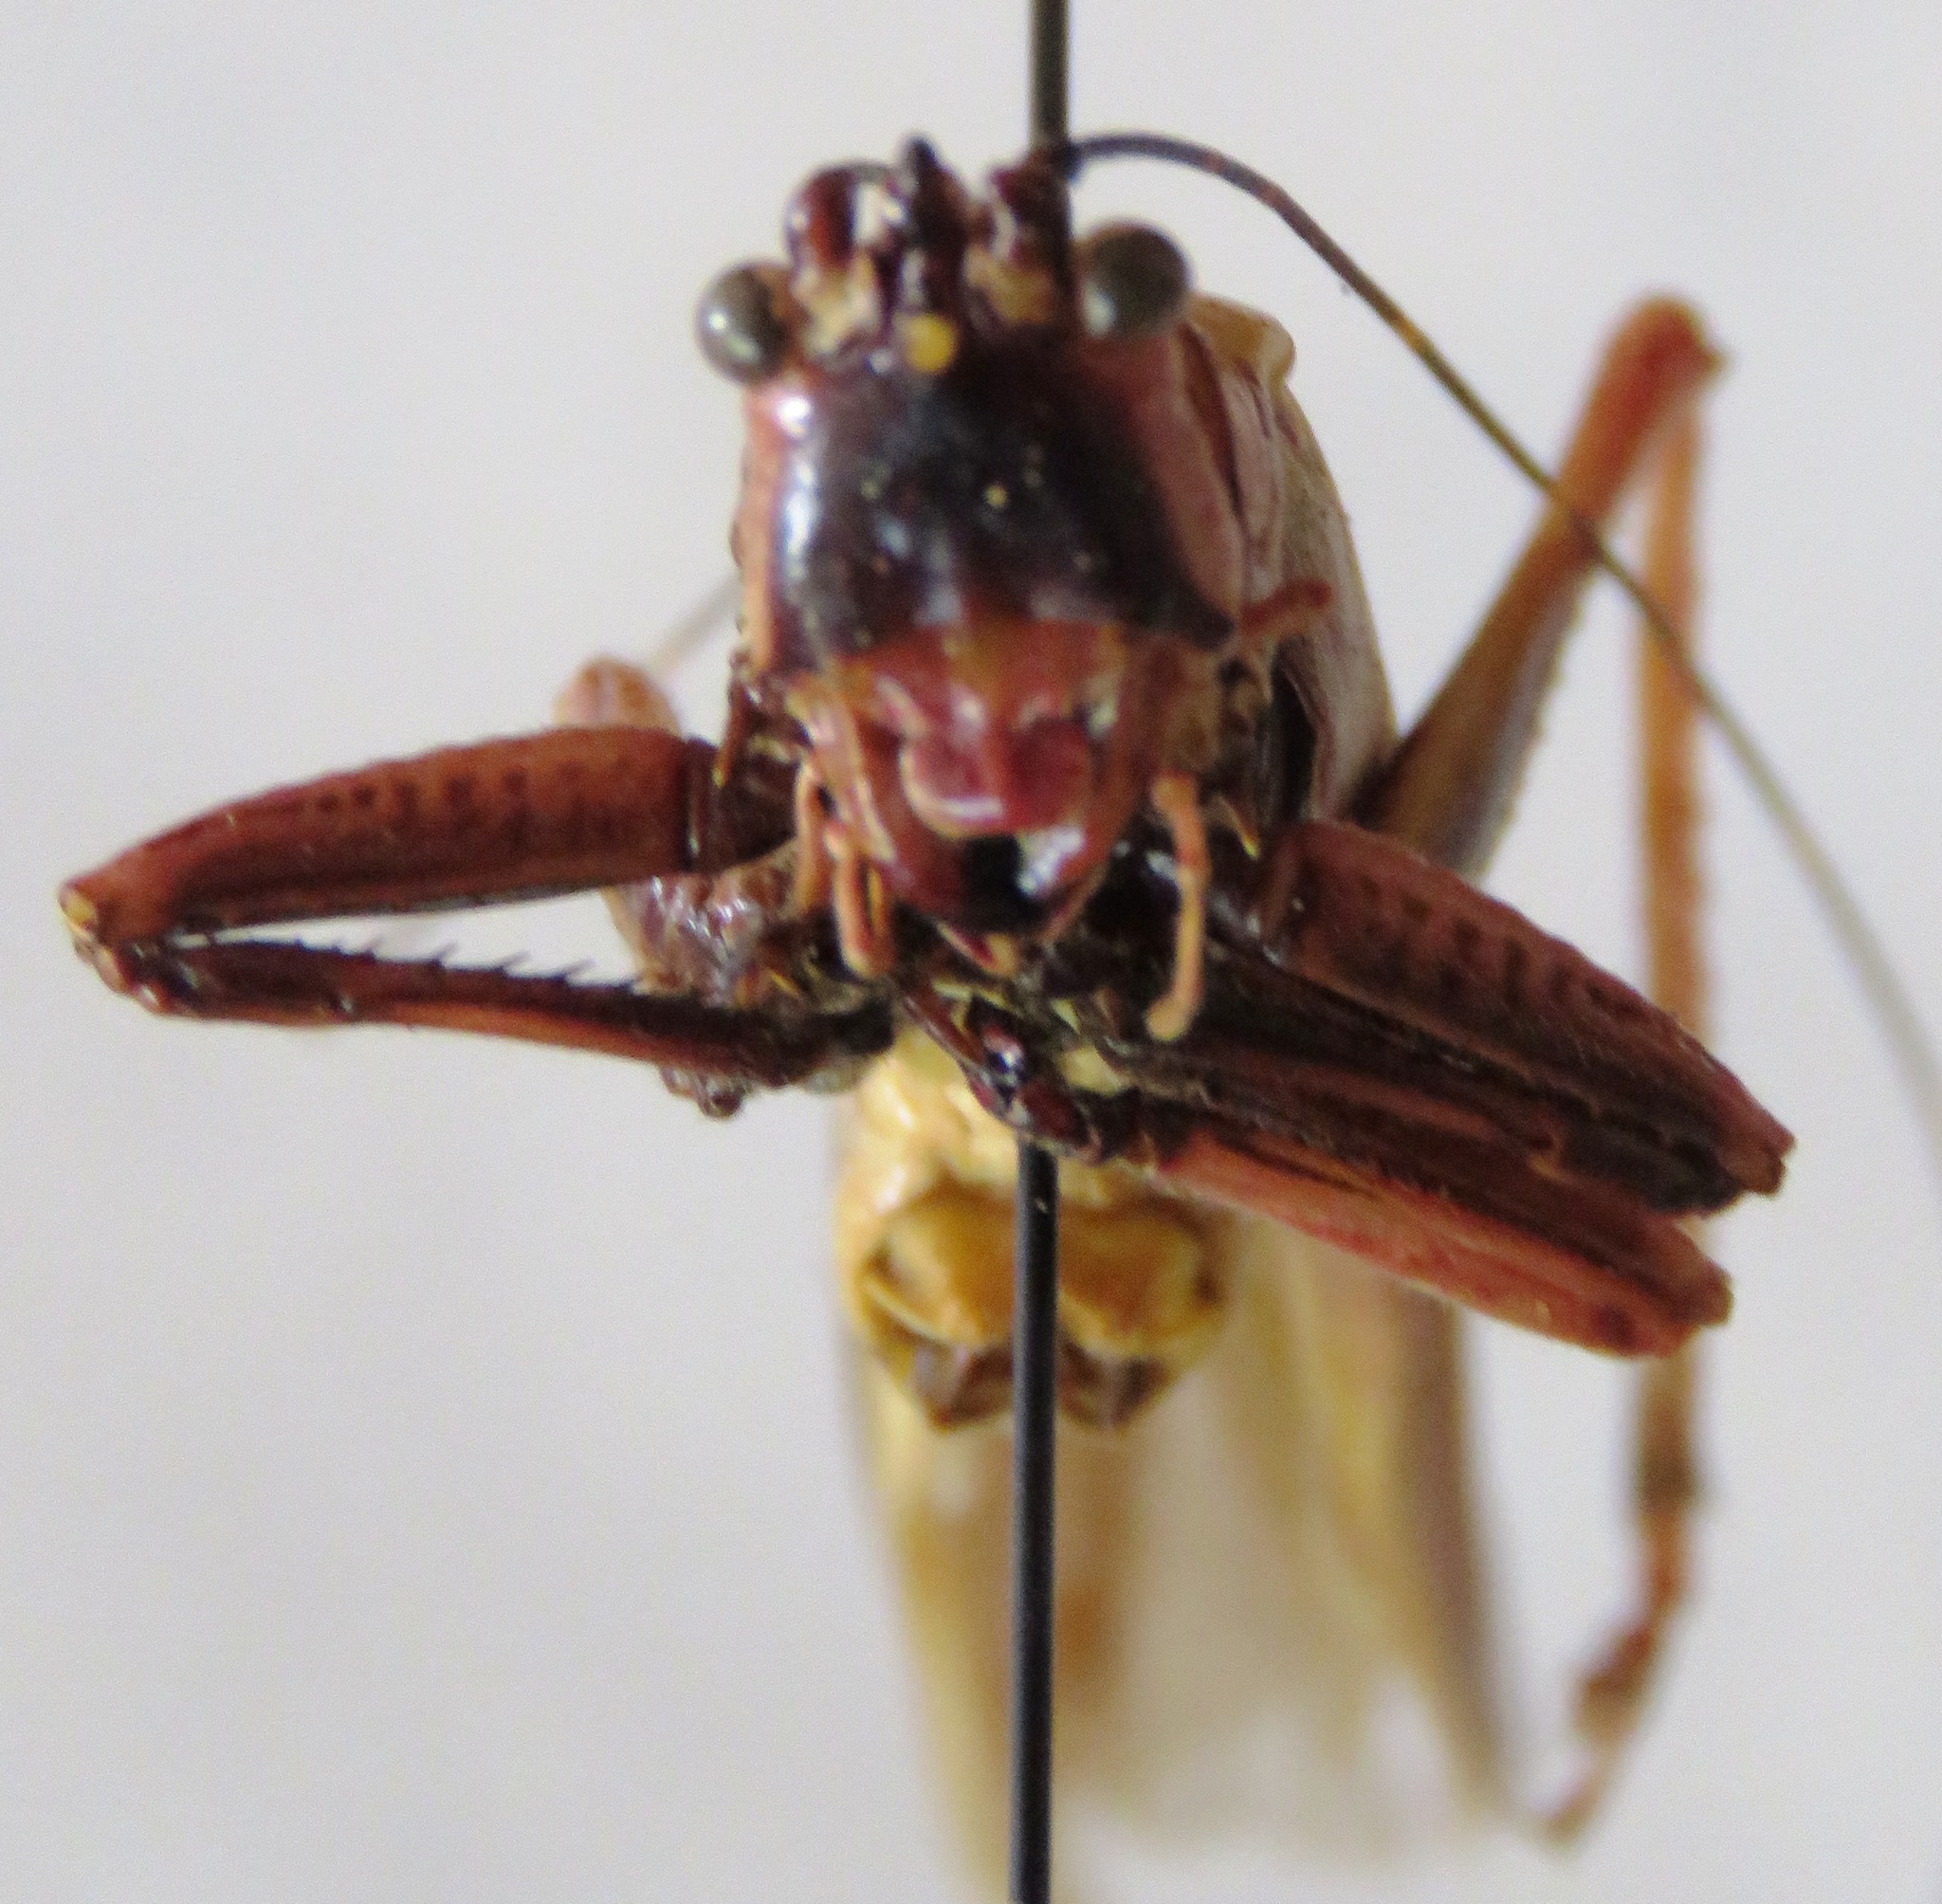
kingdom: Animalia
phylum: Arthropoda
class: Insecta
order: Orthoptera
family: Tettigoniidae
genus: Moncheca
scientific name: Moncheca elegans
